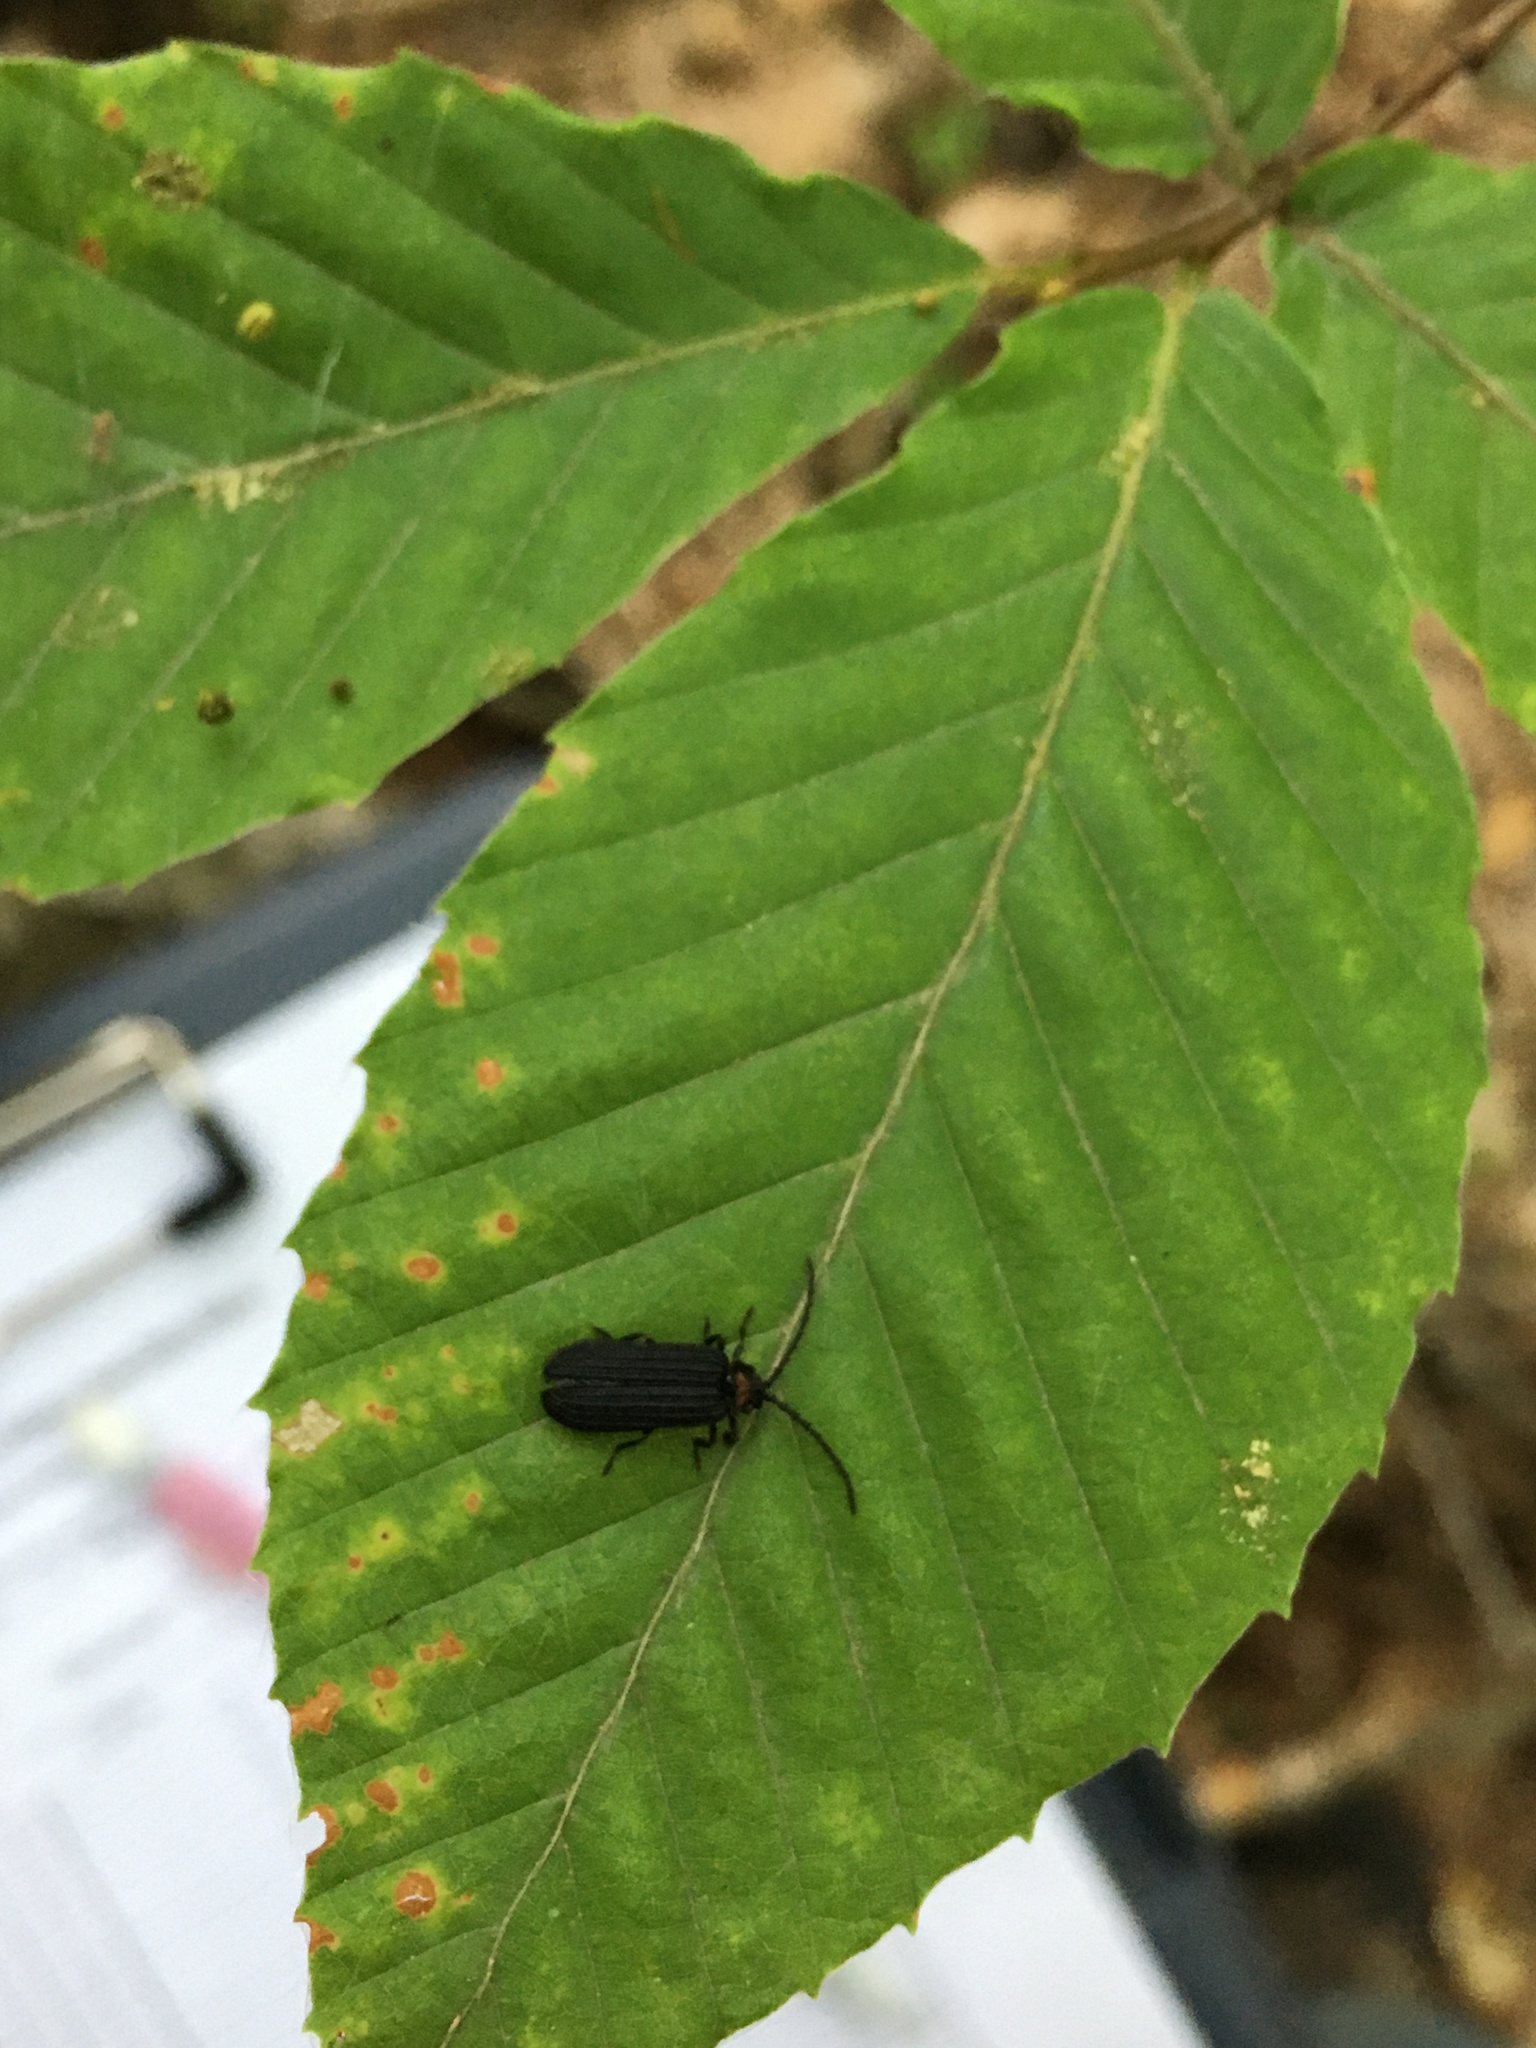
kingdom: Animalia
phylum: Arthropoda
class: Insecta
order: Coleoptera
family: Lycidae
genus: Lopheros
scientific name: Lopheros fraternus
